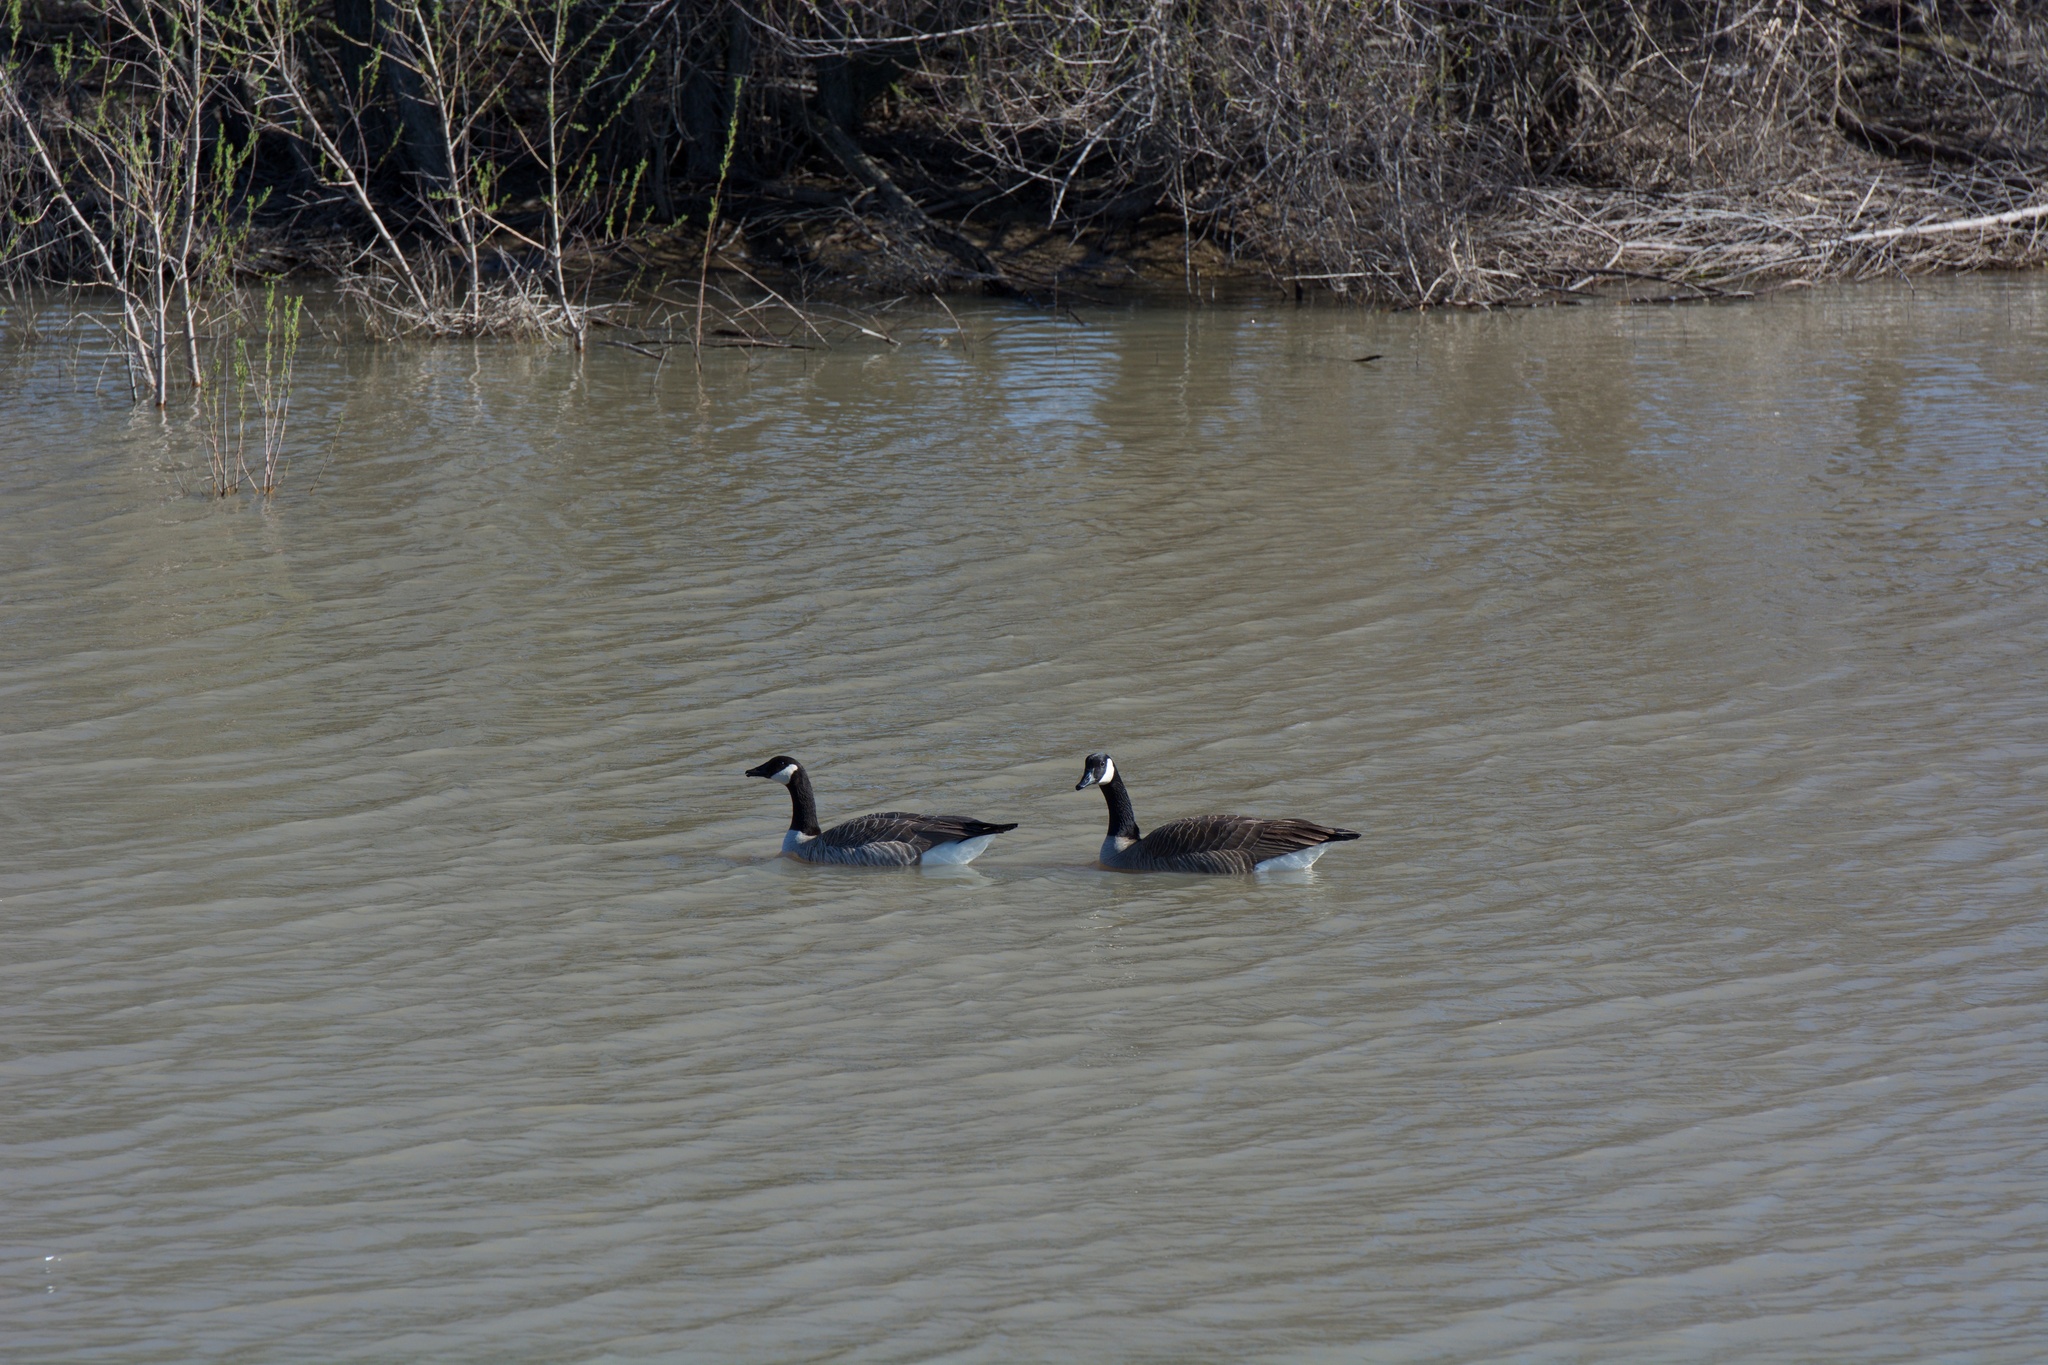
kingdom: Animalia
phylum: Chordata
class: Aves
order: Anseriformes
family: Anatidae
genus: Branta
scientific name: Branta canadensis
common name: Canada goose
